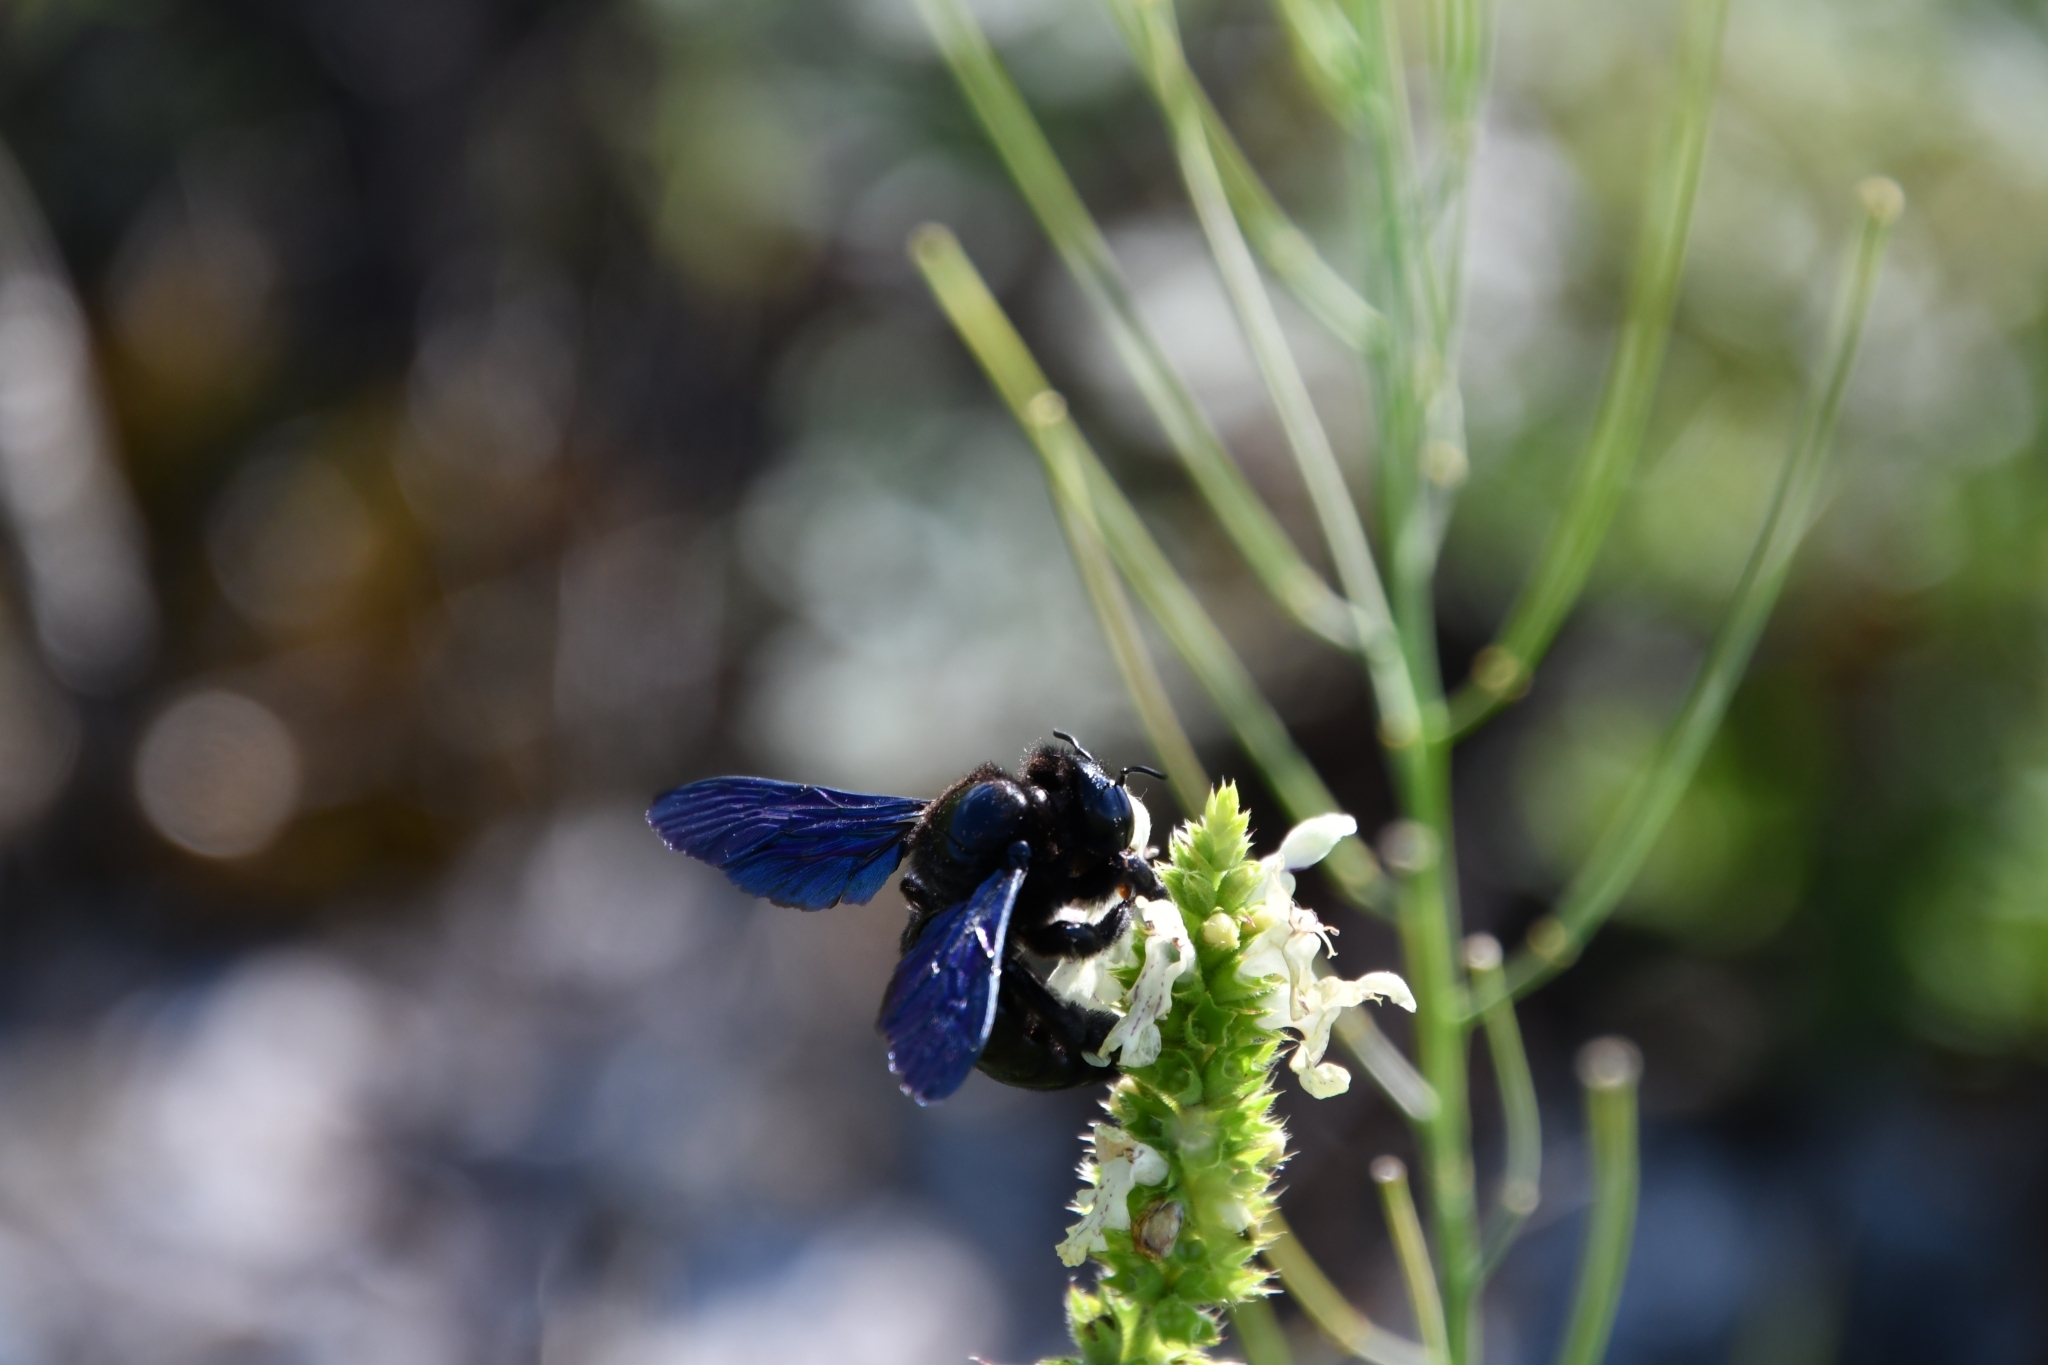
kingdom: Animalia
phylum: Arthropoda
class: Insecta
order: Hymenoptera
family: Apidae
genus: Xylocopa
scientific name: Xylocopa violacea
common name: Violet carpenter bee
